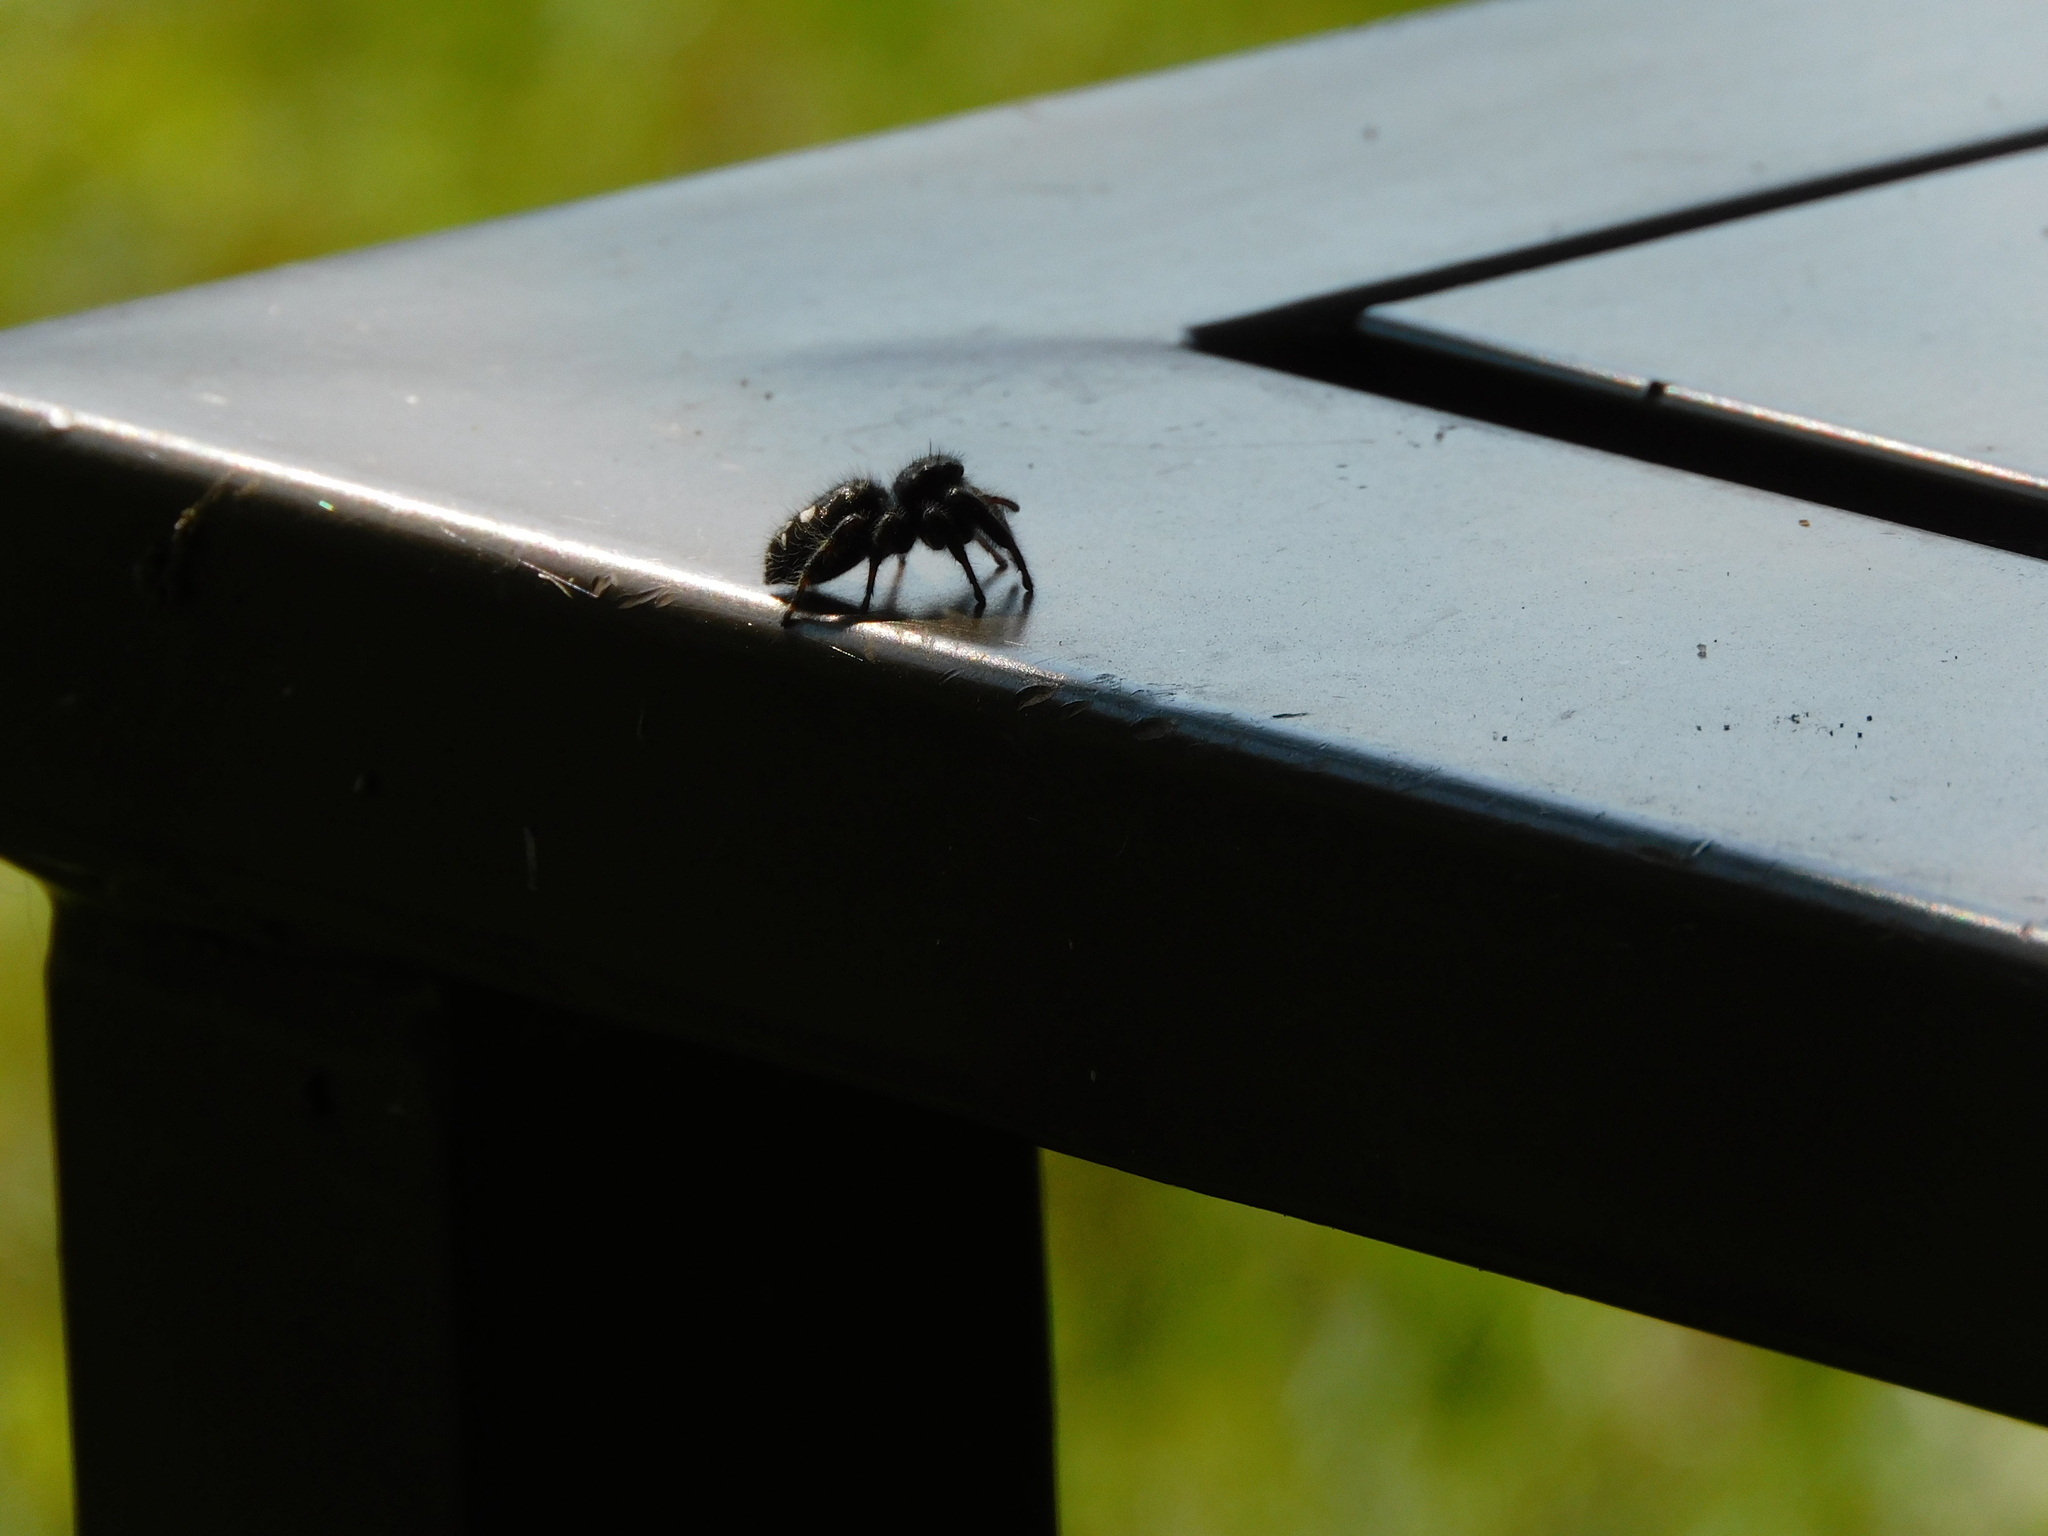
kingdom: Animalia
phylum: Arthropoda
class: Arachnida
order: Araneae
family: Salticidae
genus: Phidippus
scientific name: Phidippus audax
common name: Bold jumper
